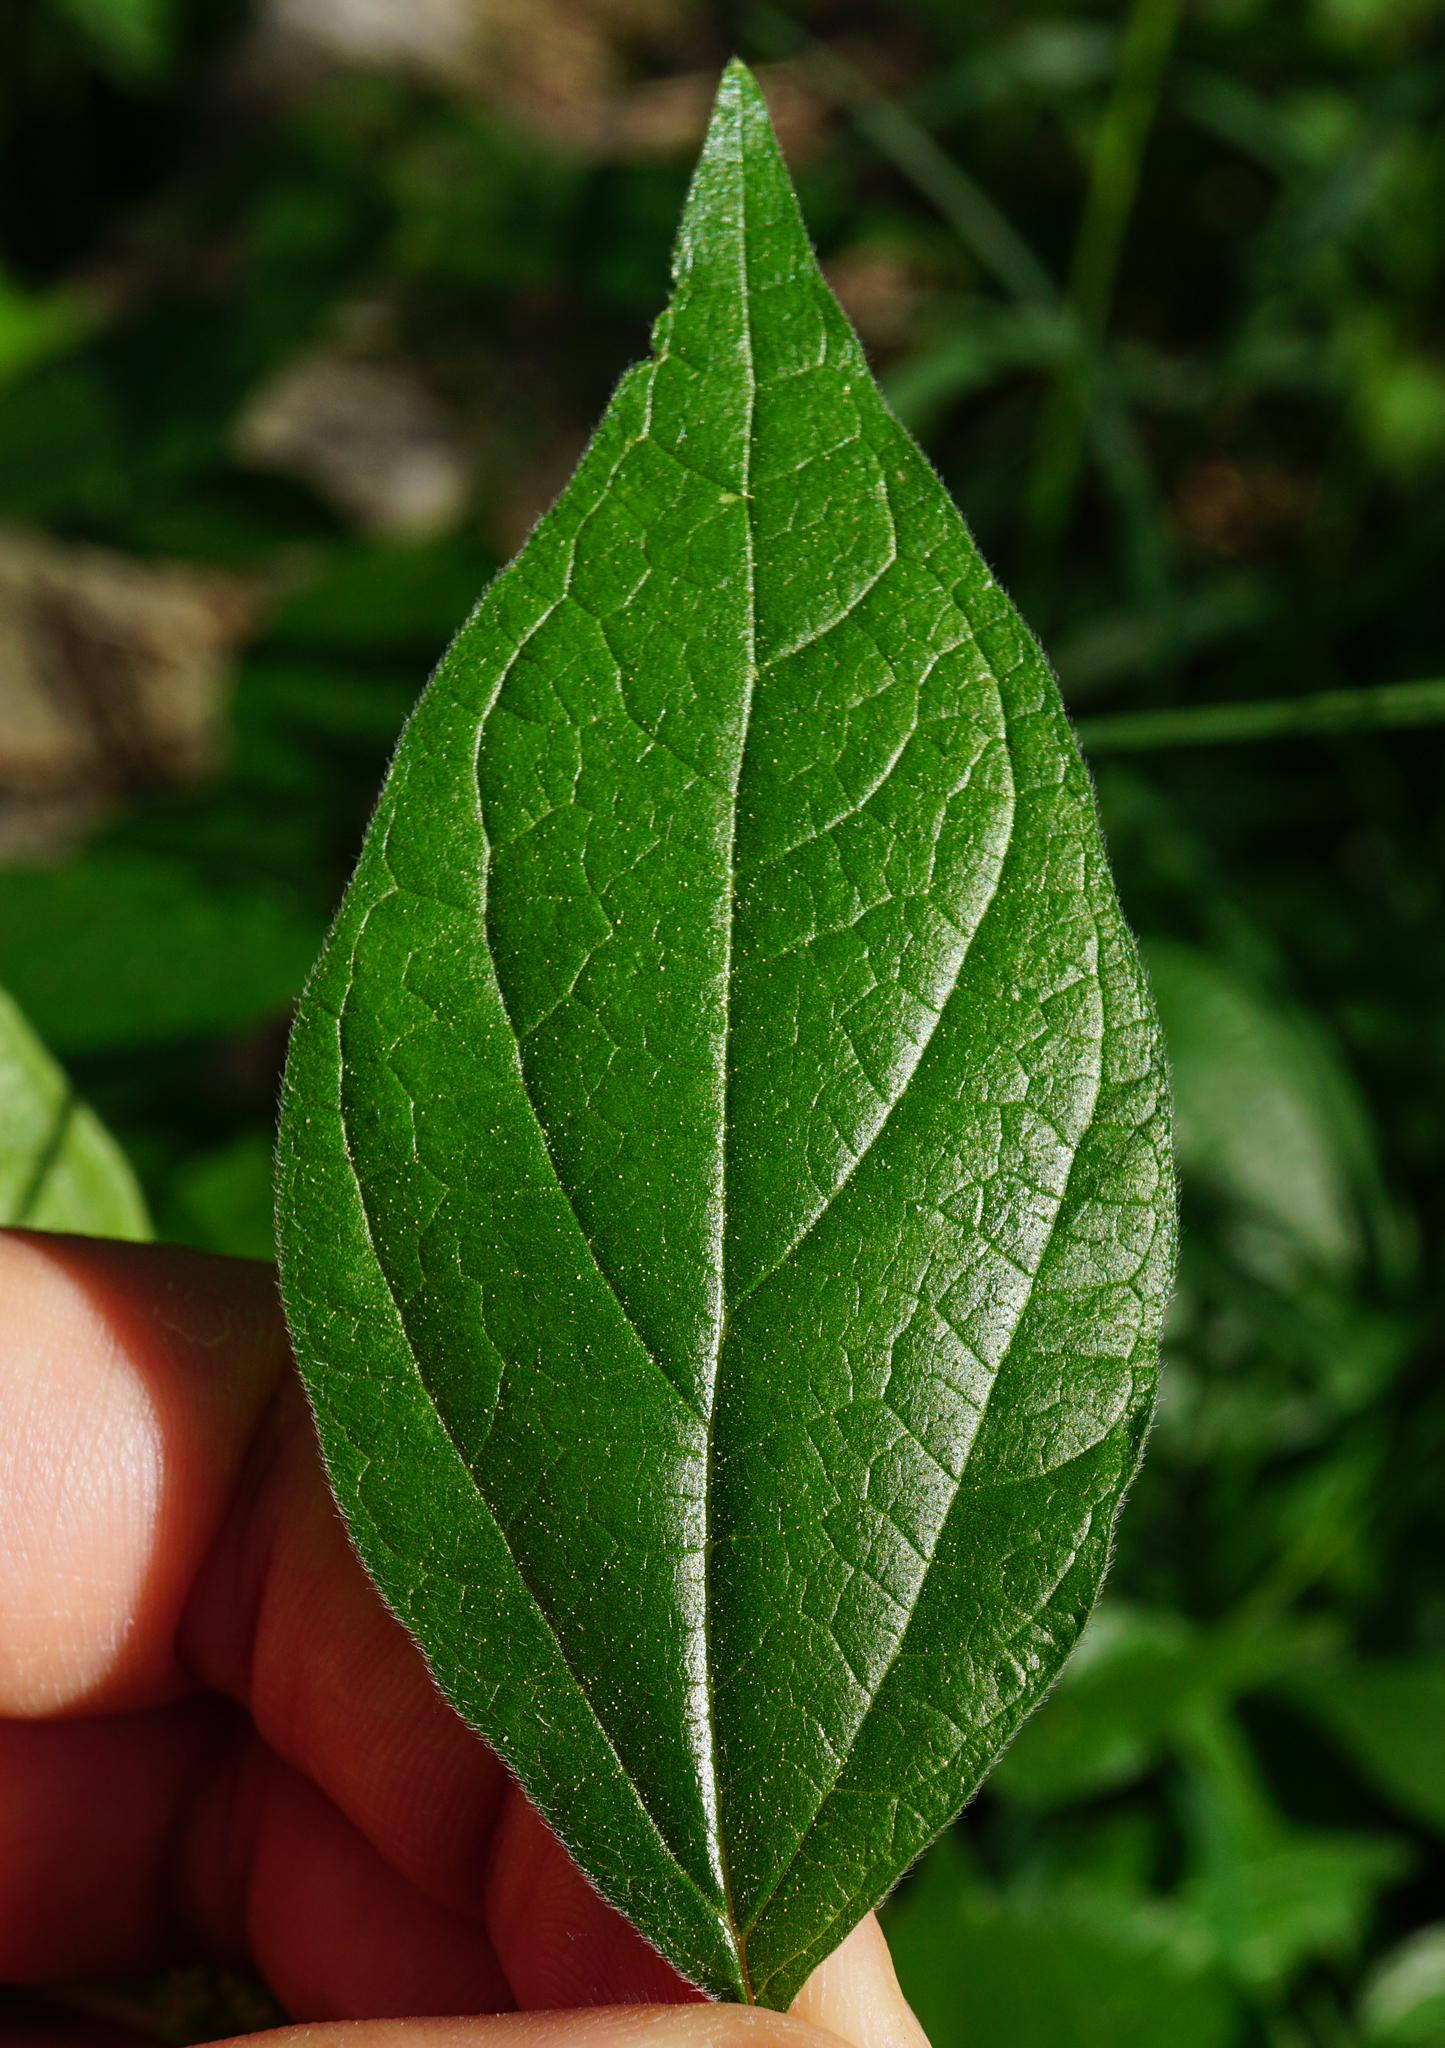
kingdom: Plantae
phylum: Tracheophyta
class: Magnoliopsida
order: Rosales
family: Urticaceae
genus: Parietaria
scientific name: Parietaria officinalis
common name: Eastern pellitory-of-the-wall
